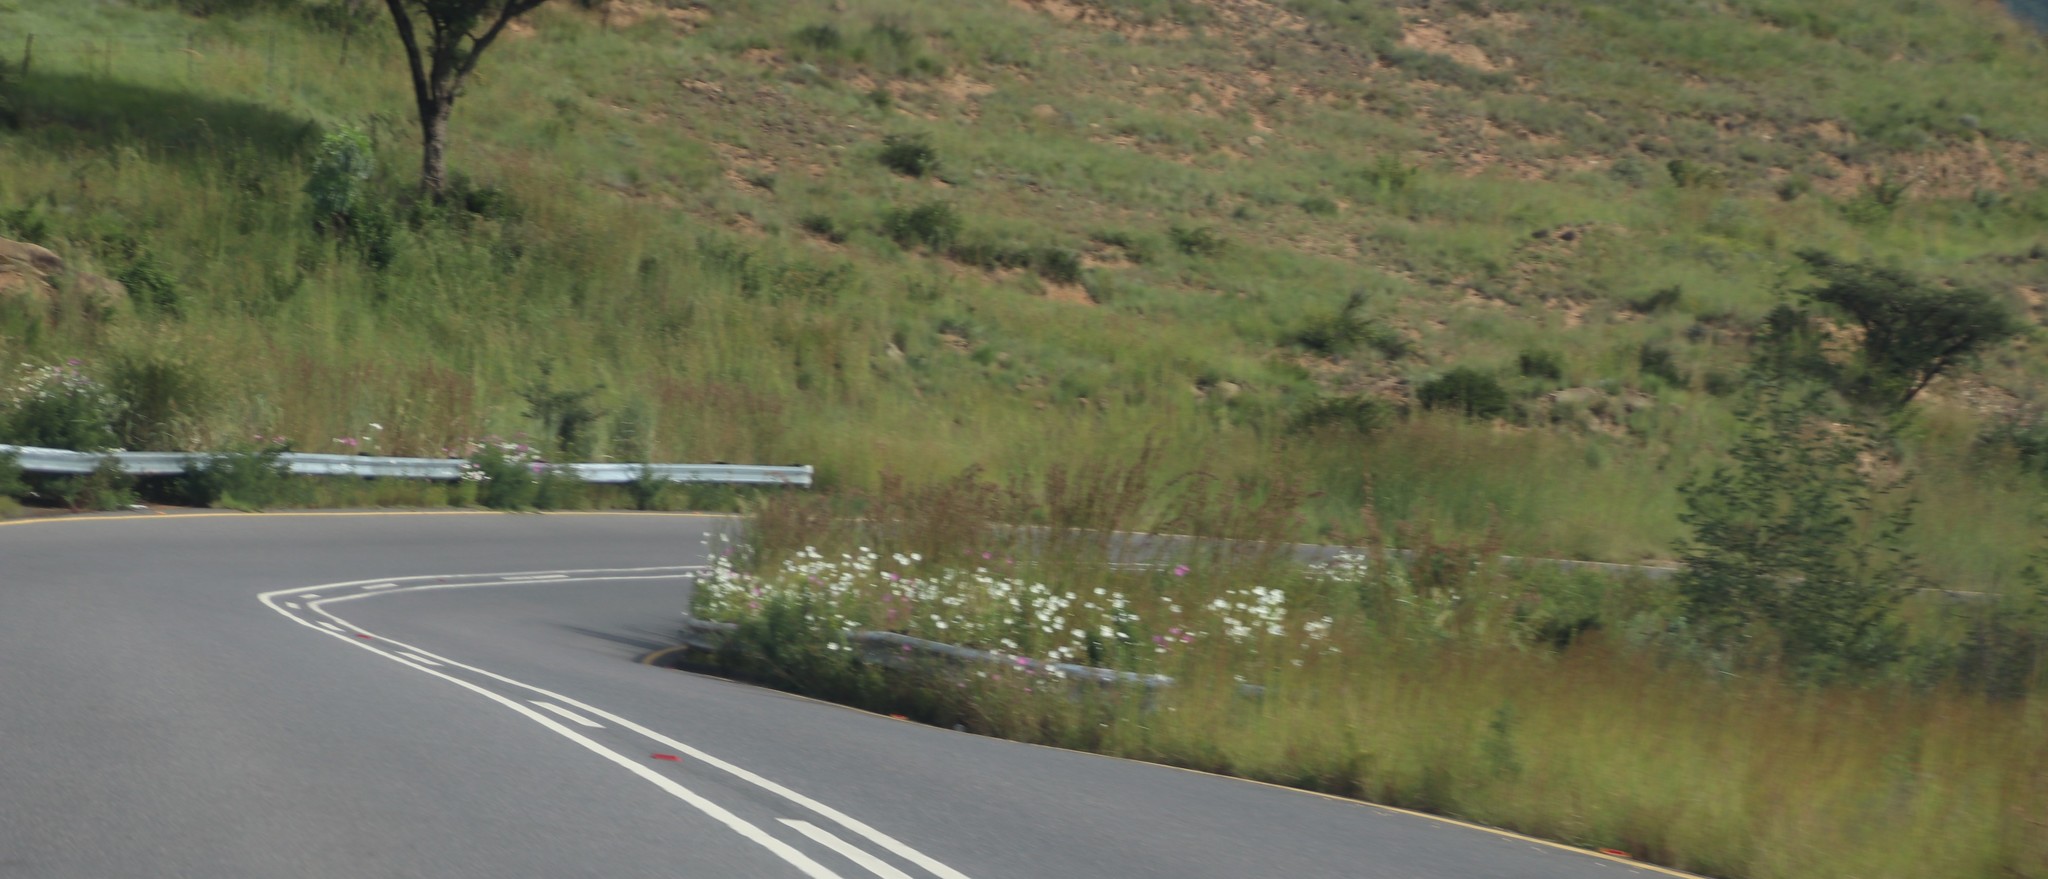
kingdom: Plantae
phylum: Tracheophyta
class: Magnoliopsida
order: Asterales
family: Asteraceae
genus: Cosmos
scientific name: Cosmos bipinnatus
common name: Garden cosmos
